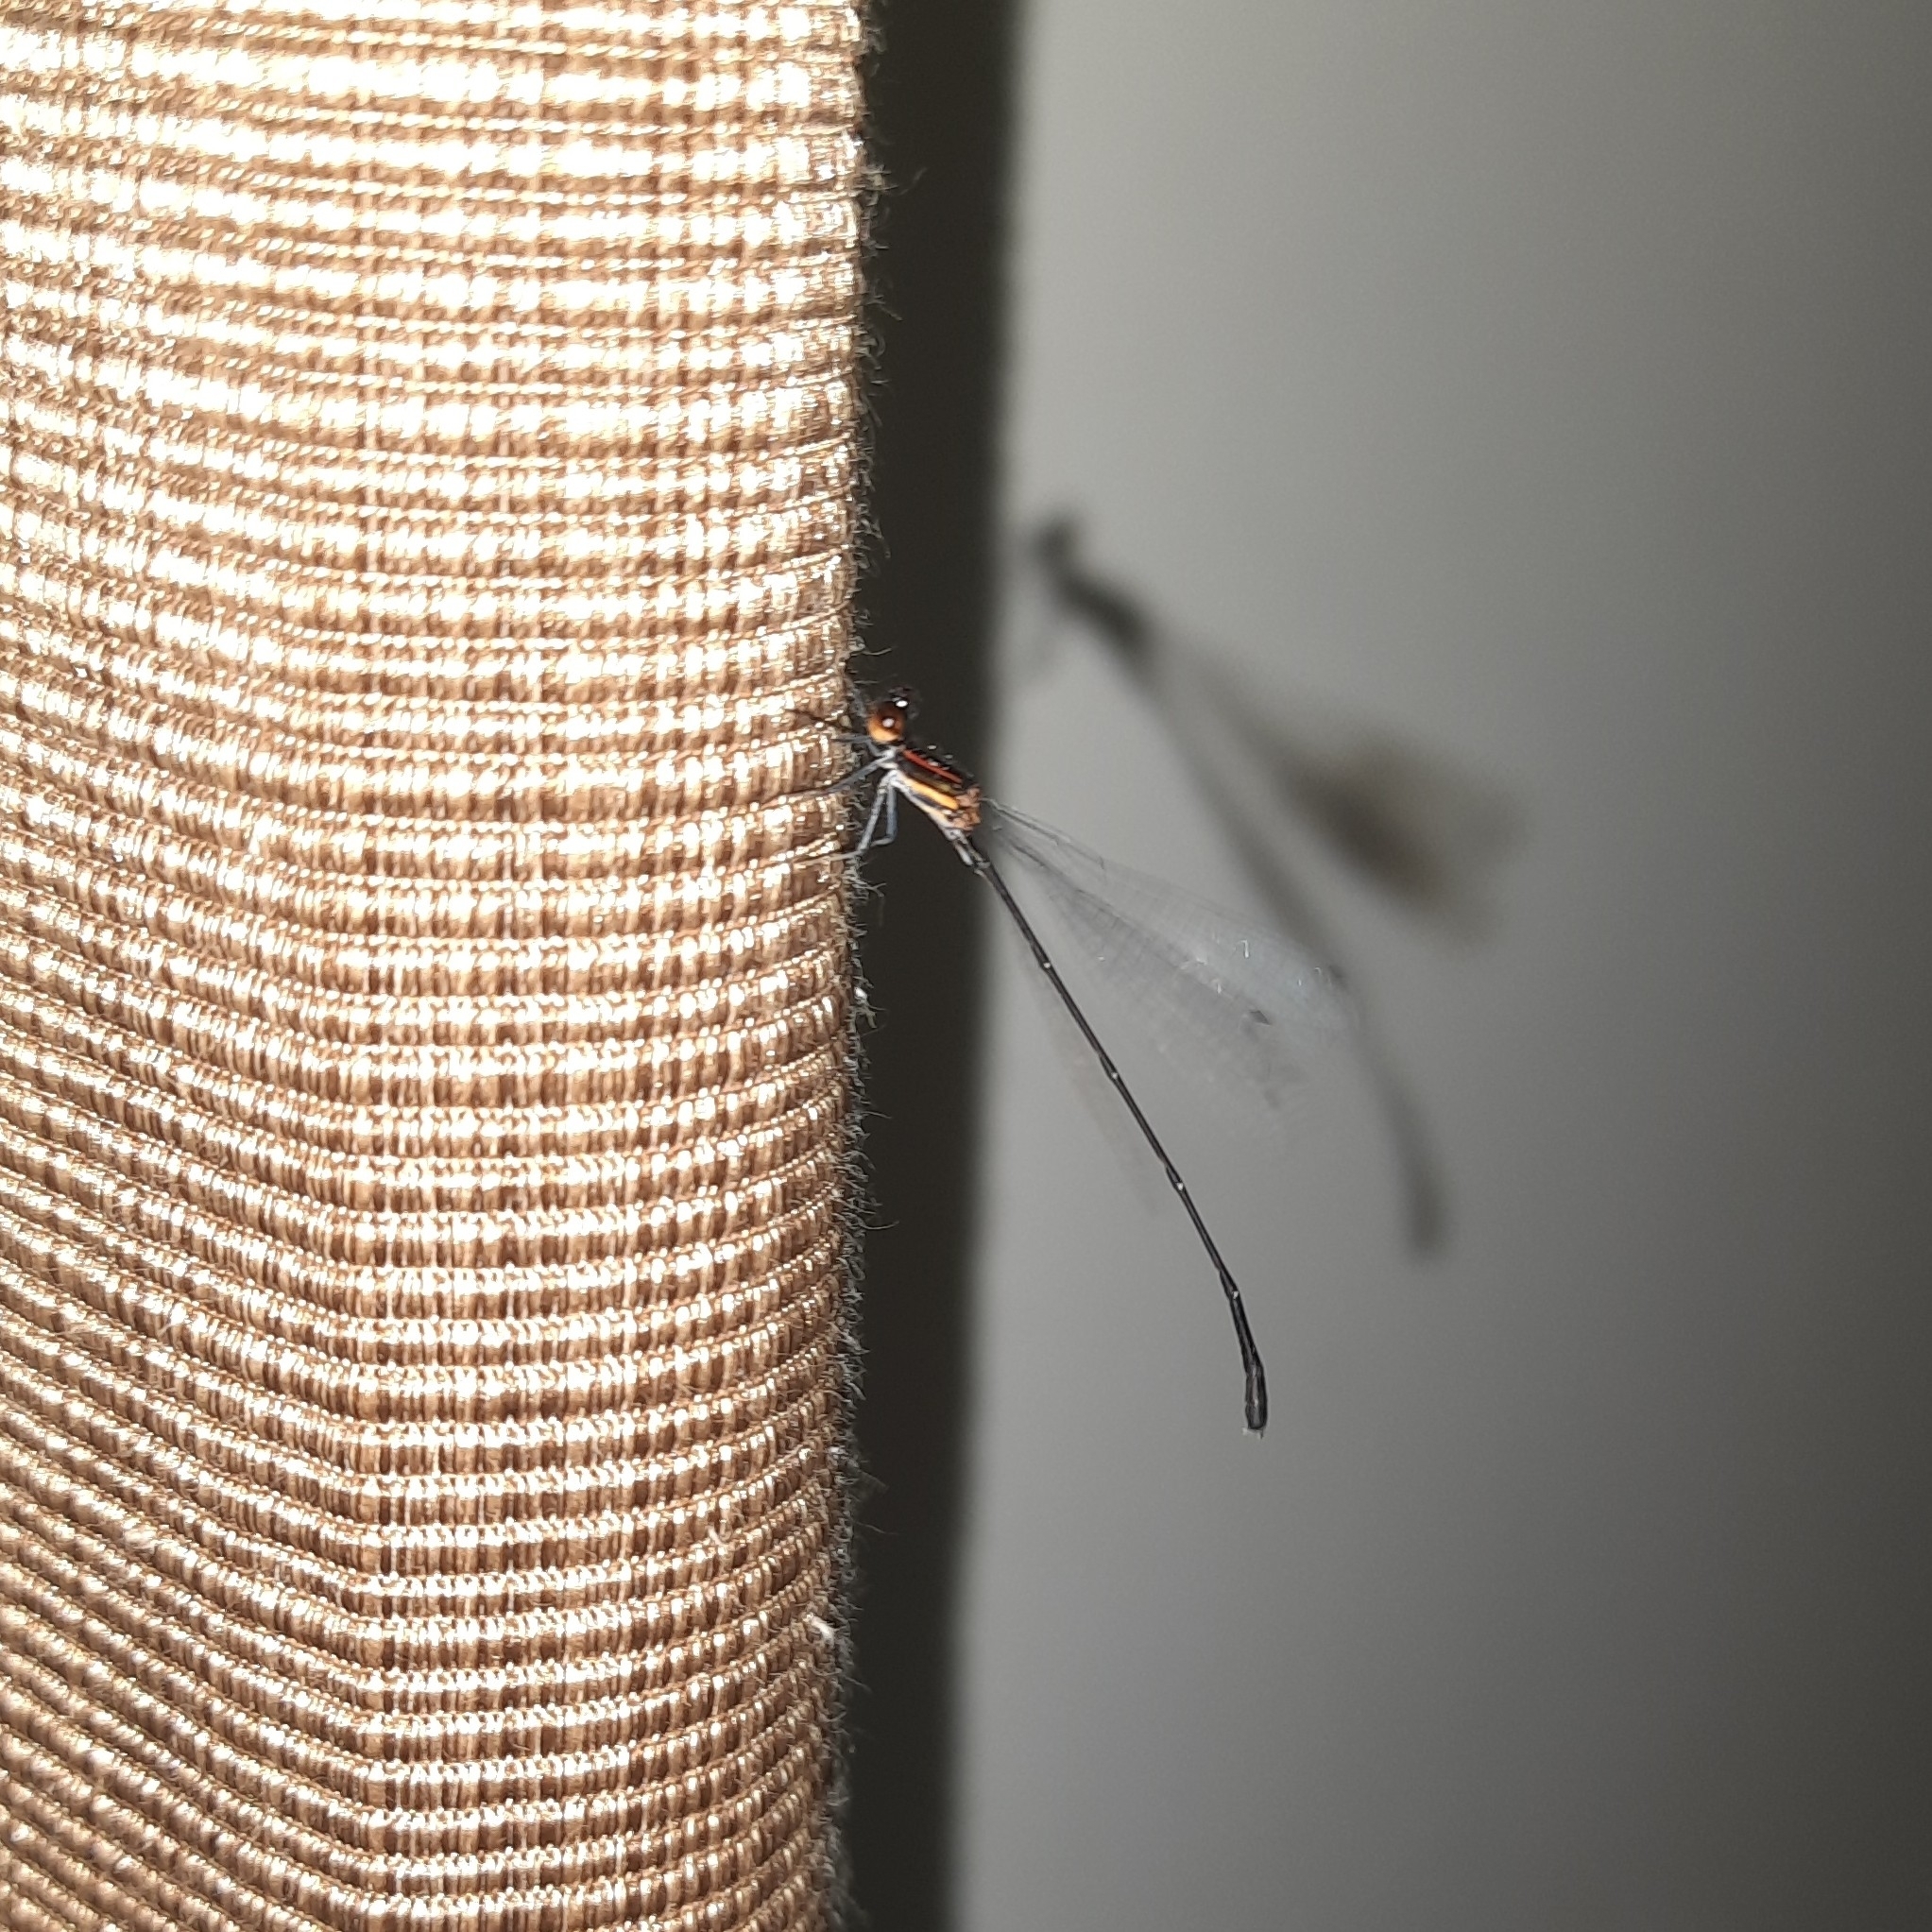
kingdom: Animalia
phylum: Arthropoda
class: Insecta
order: Odonata
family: Platycnemididae
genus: Prodasineura
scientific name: Prodasineura verticalis
